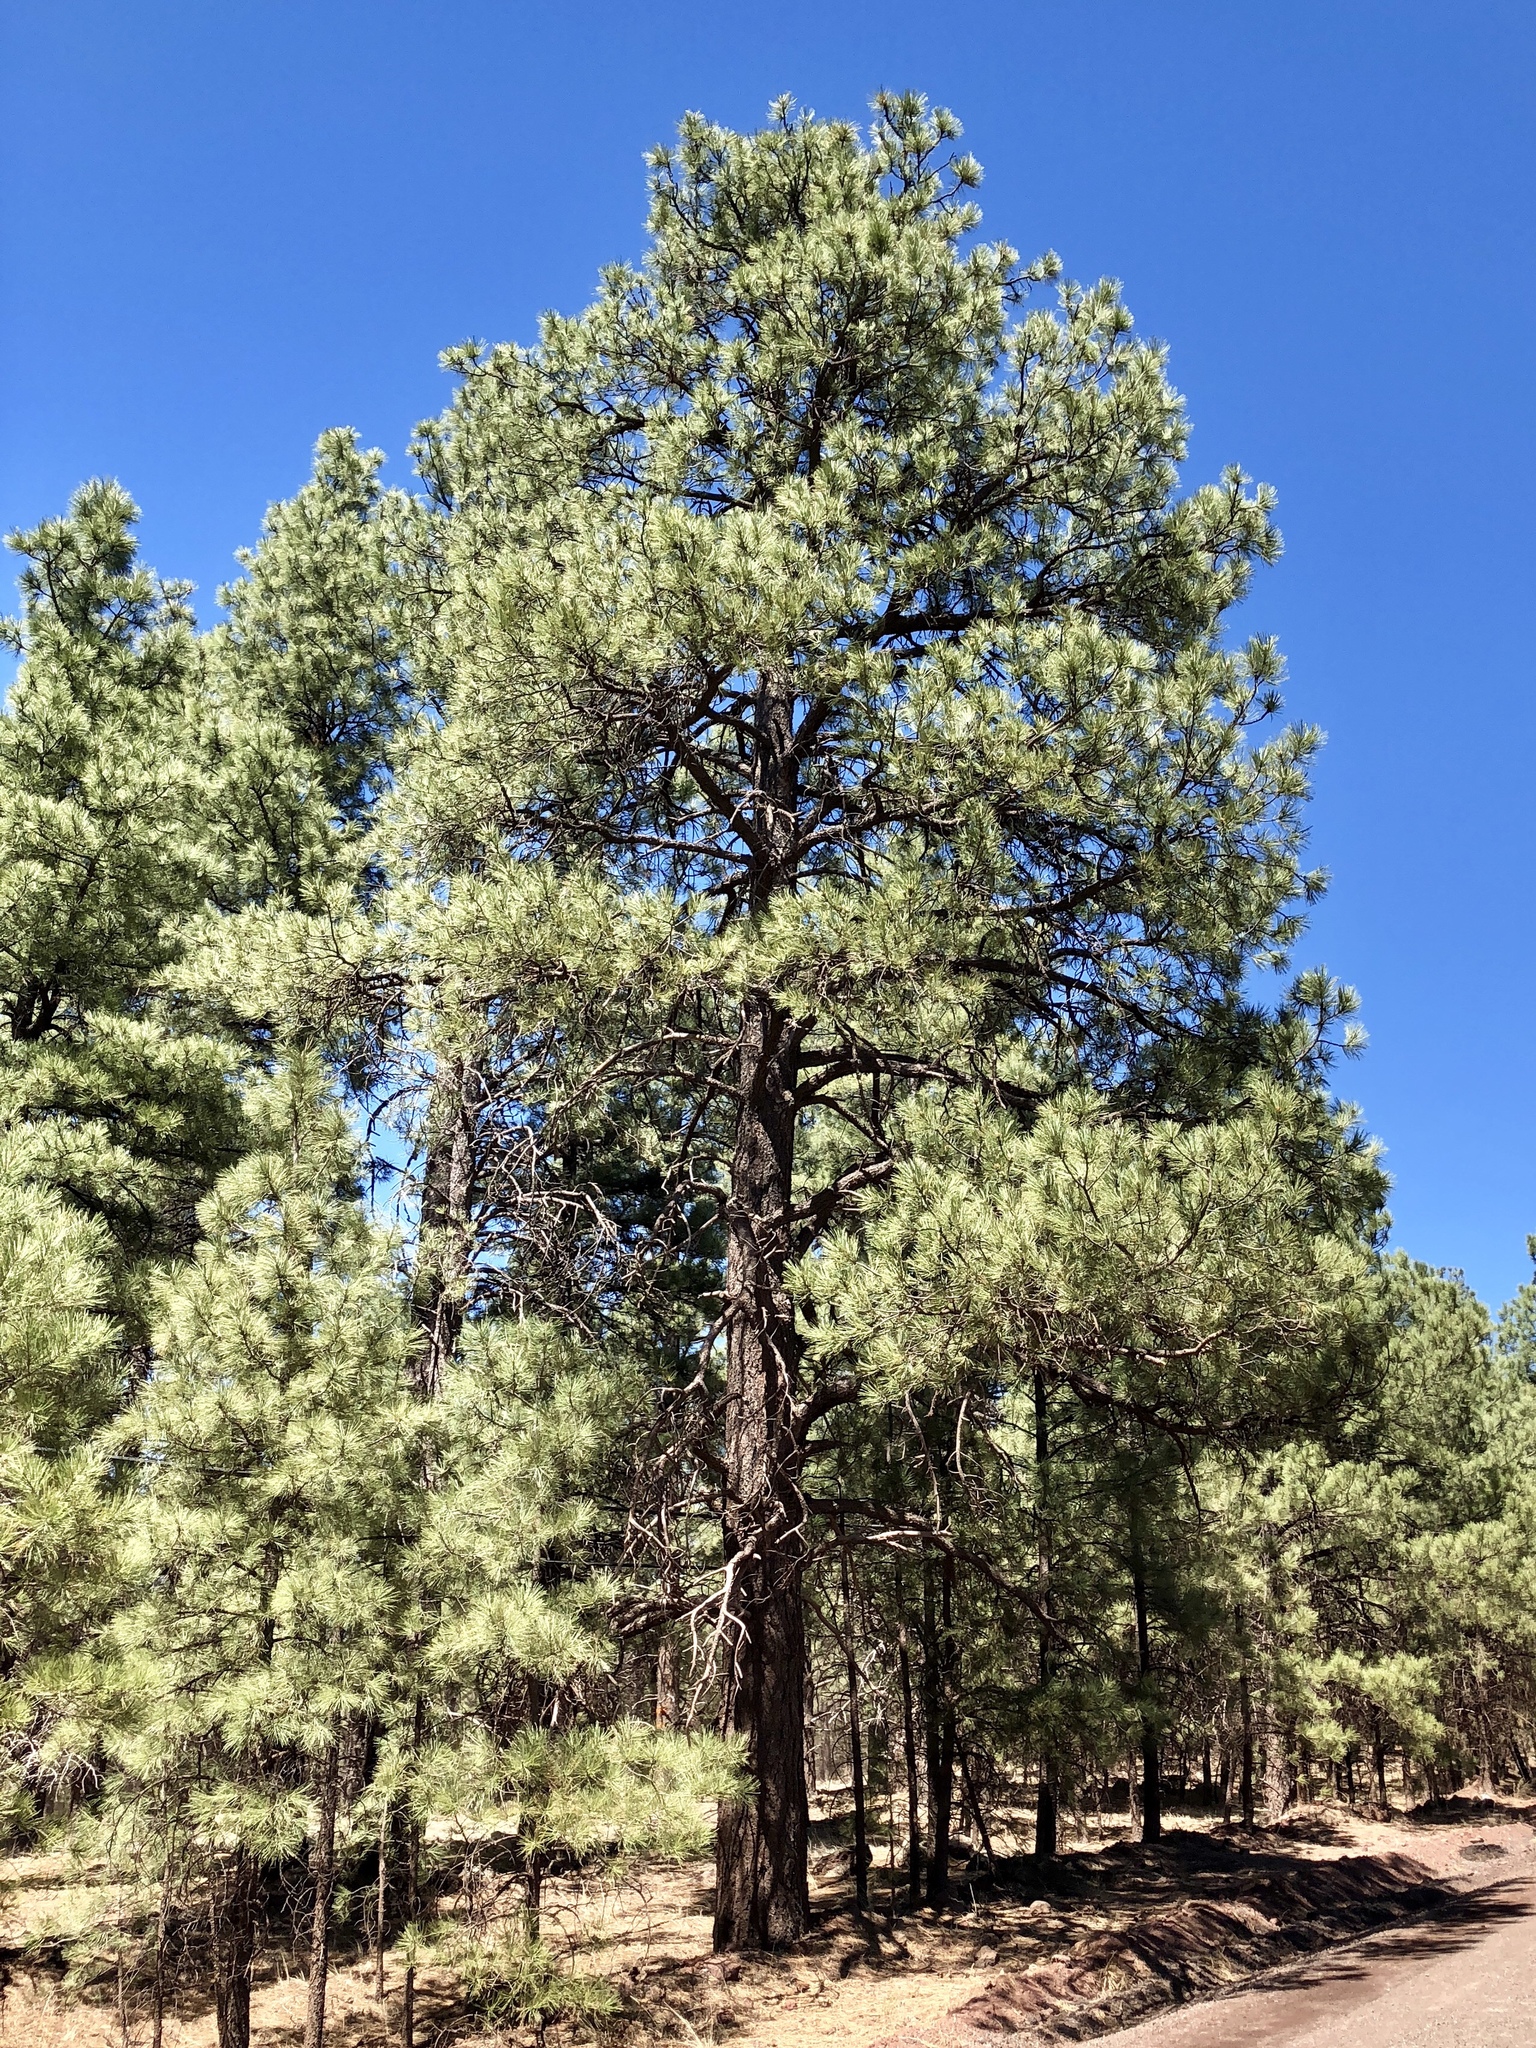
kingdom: Plantae
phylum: Tracheophyta
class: Pinopsida
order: Pinales
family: Pinaceae
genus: Pinus
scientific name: Pinus ponderosa
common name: Western yellow-pine
